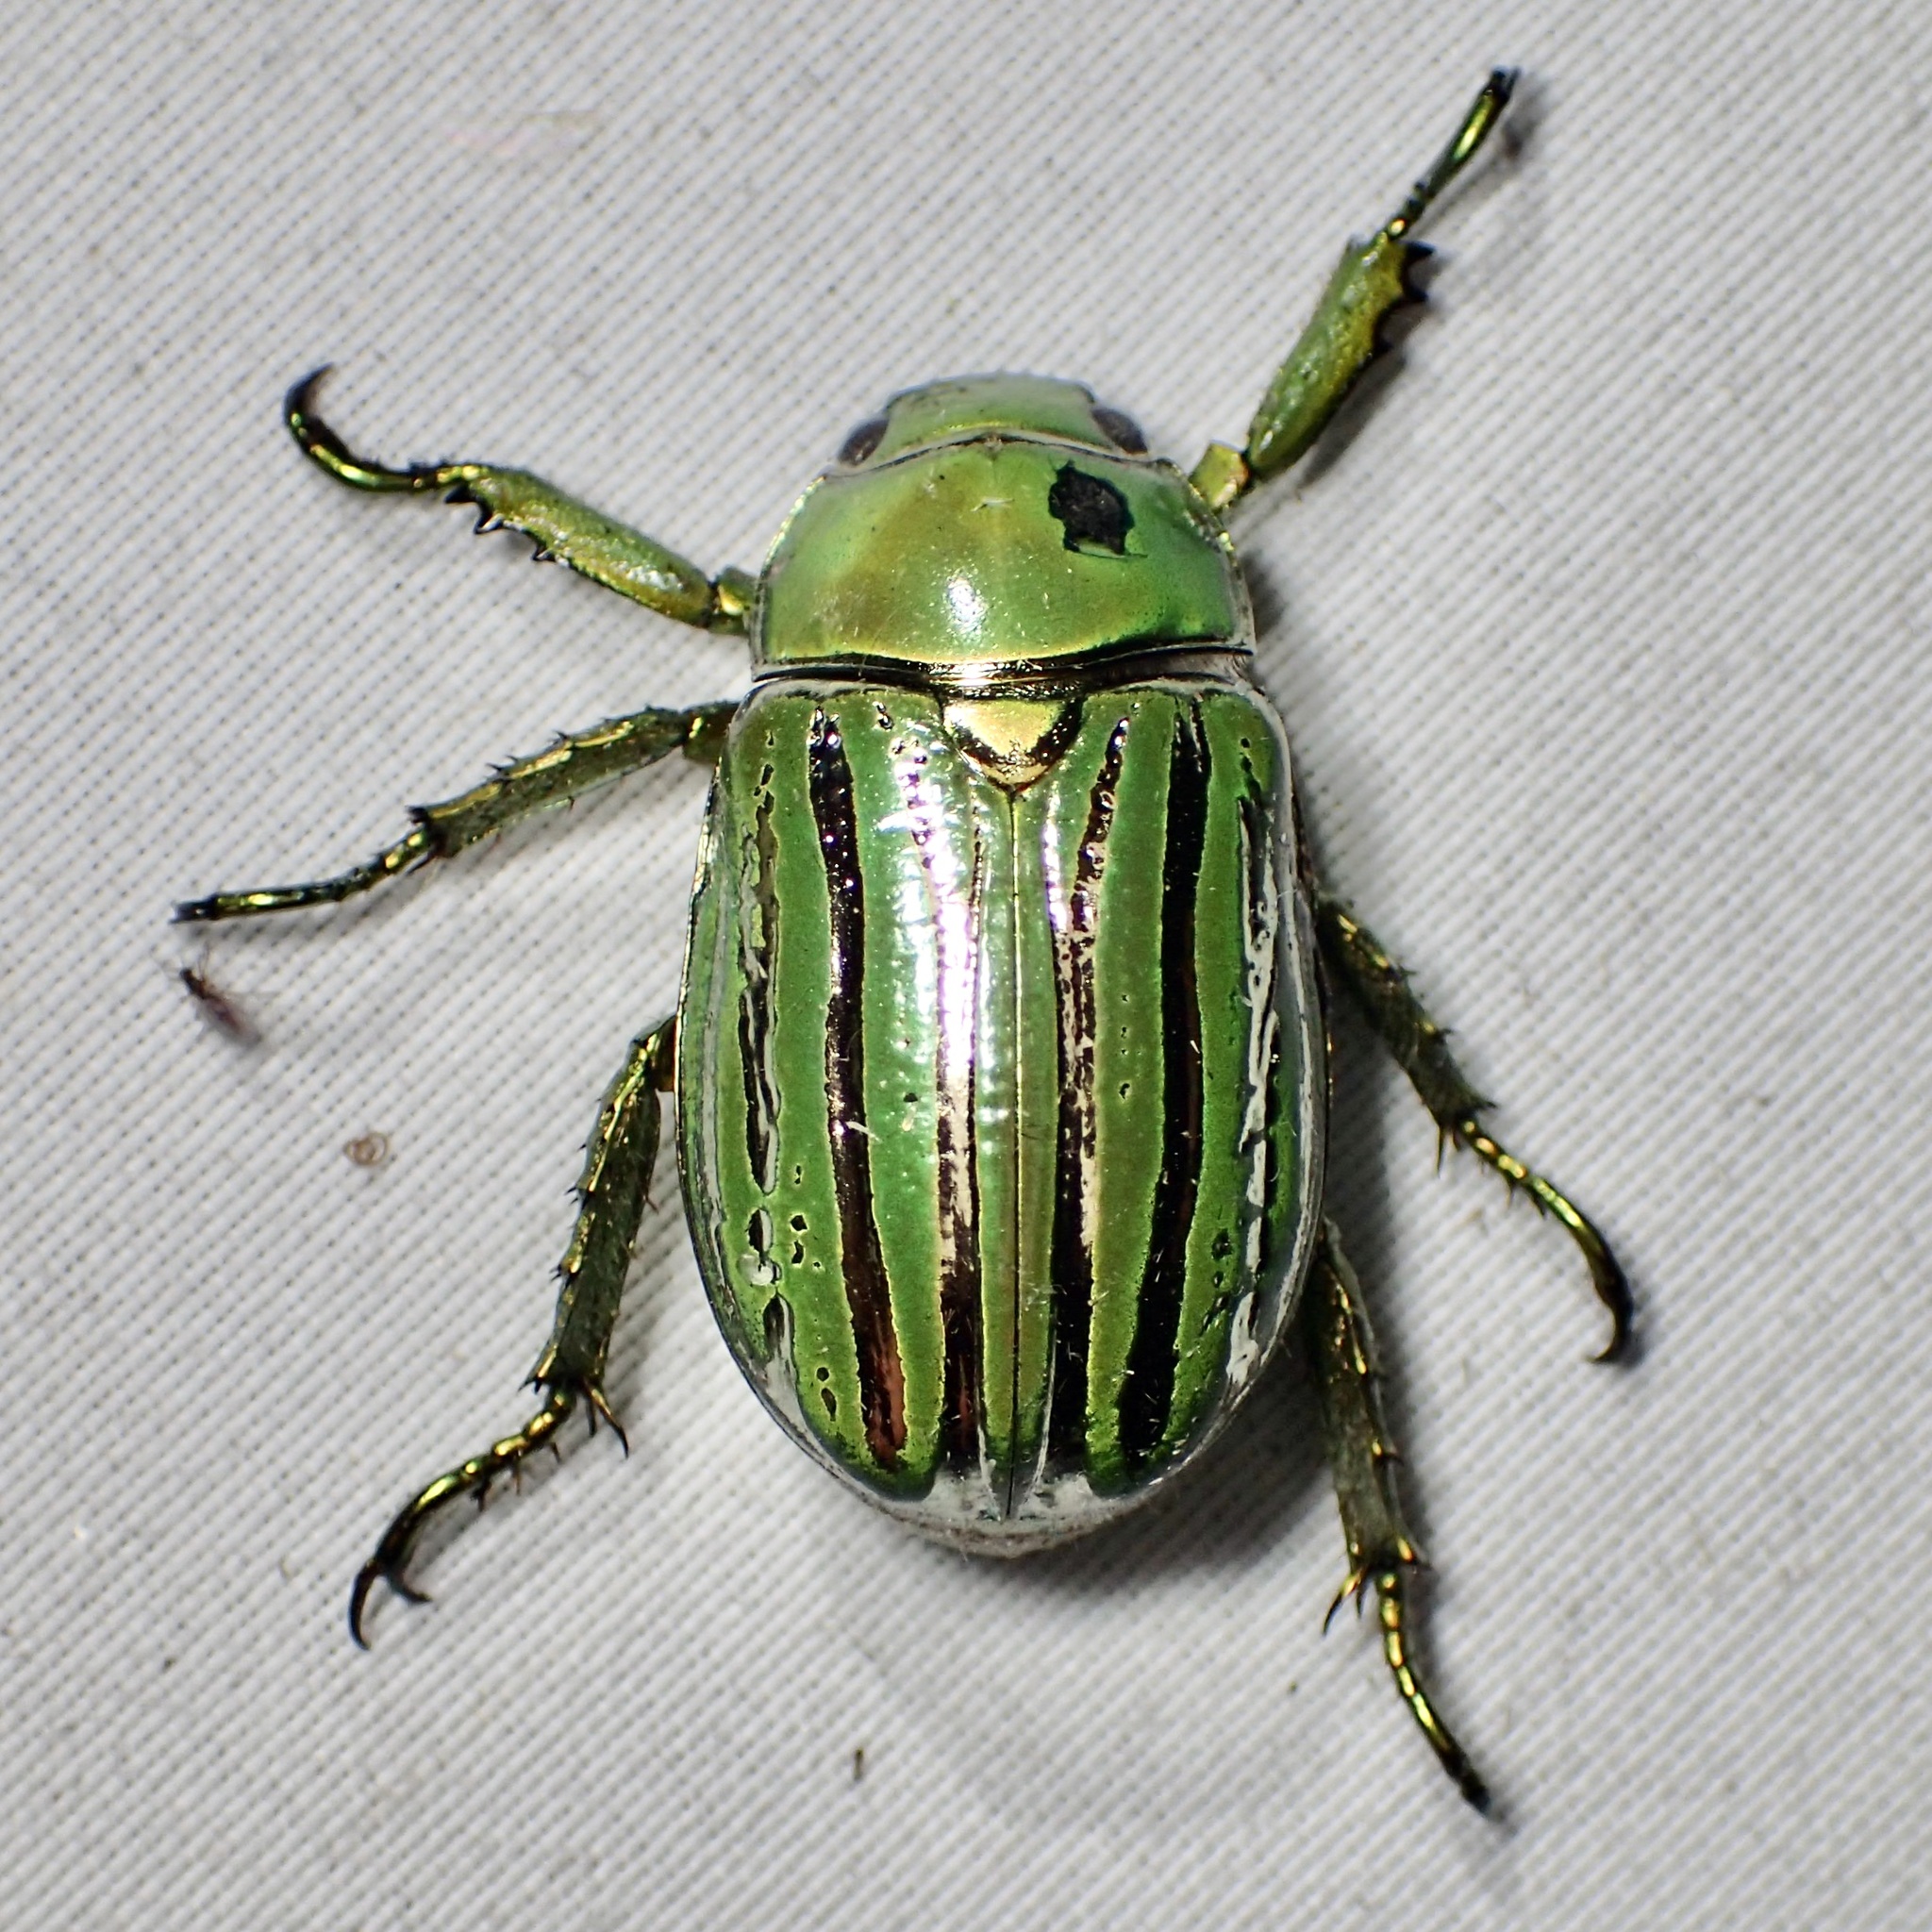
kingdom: Animalia
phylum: Arthropoda
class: Insecta
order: Coleoptera
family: Scarabaeidae
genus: Chrysina
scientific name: Chrysina gloriosa
